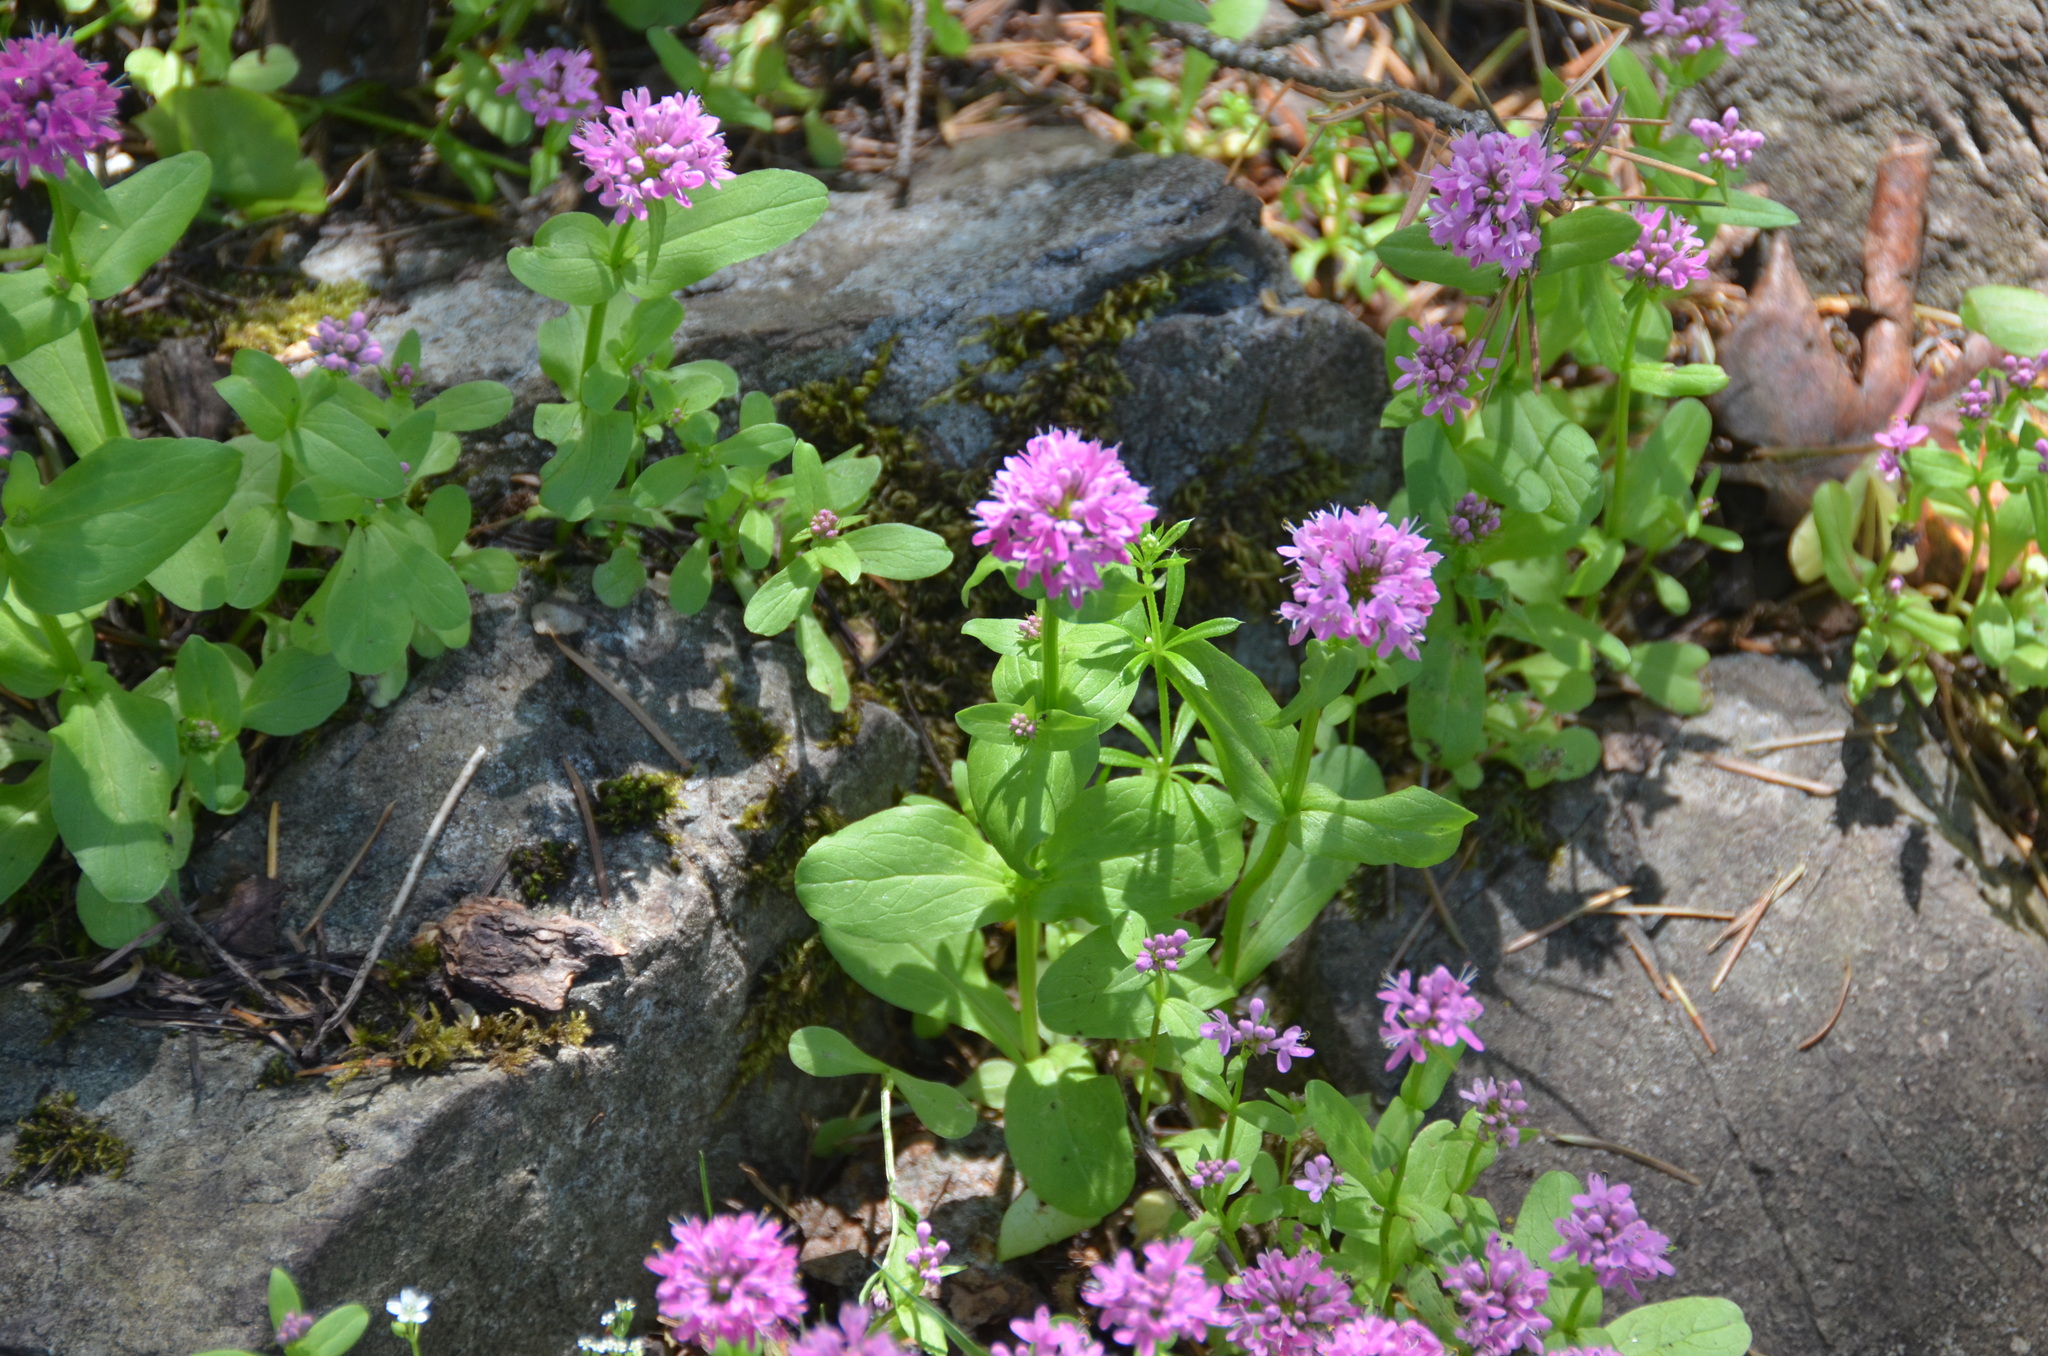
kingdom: Plantae
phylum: Tracheophyta
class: Magnoliopsida
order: Dipsacales
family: Caprifoliaceae
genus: Plectritis
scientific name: Plectritis congesta
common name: Pink plectritis
